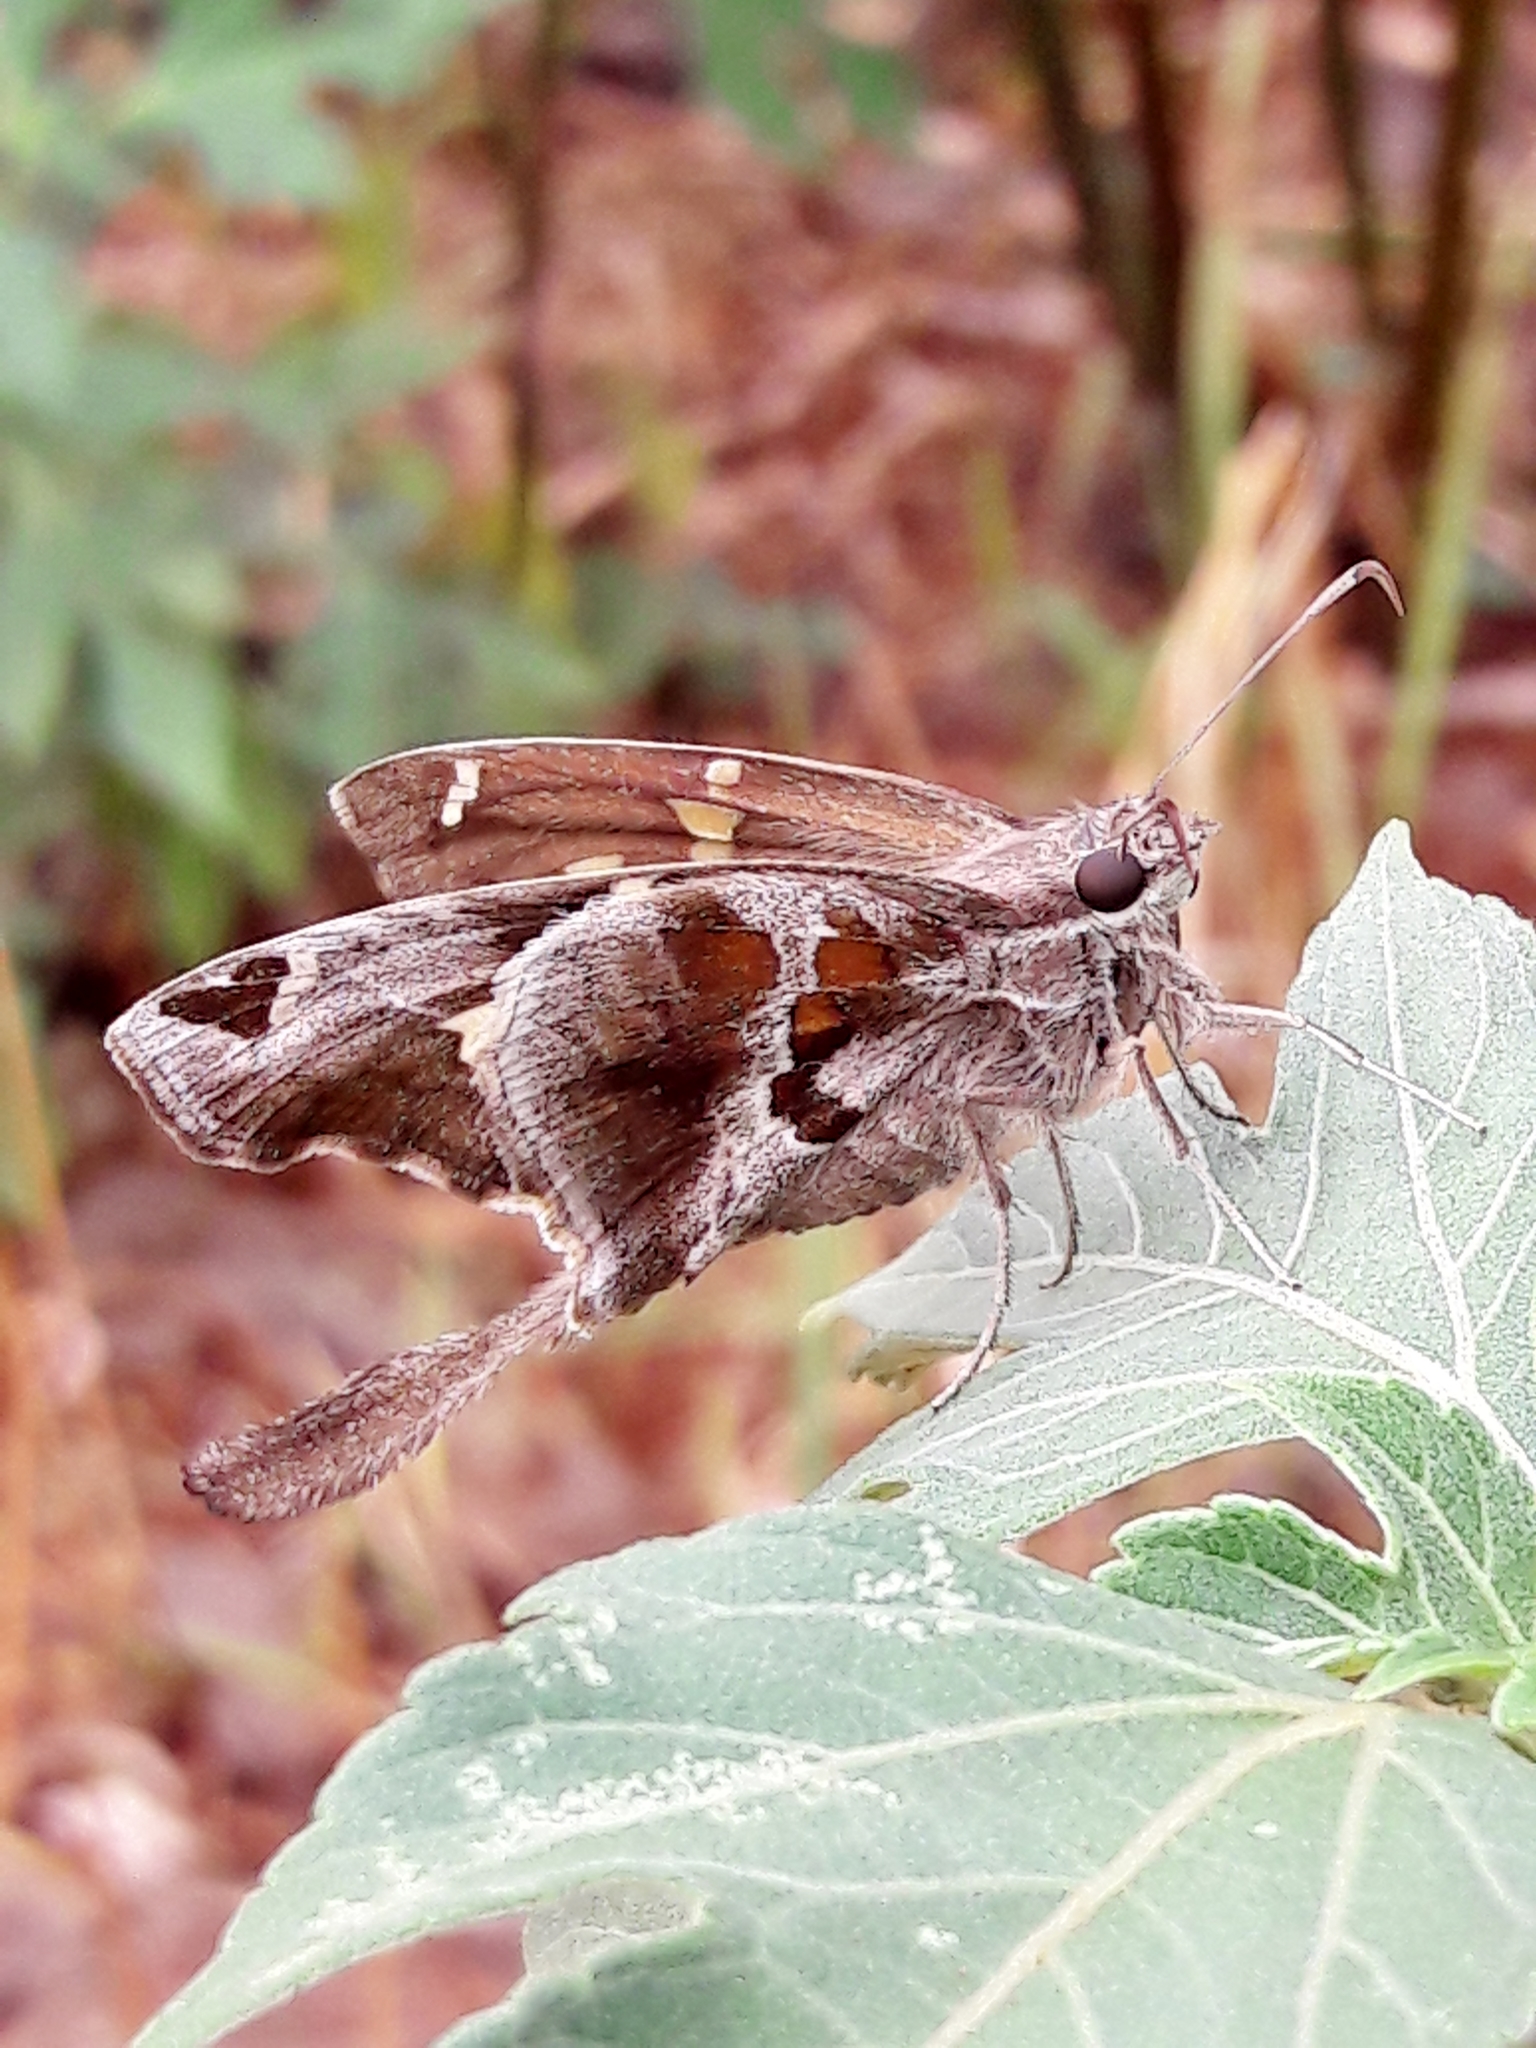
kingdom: Animalia
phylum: Arthropoda
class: Insecta
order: Lepidoptera
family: Hesperiidae
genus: Chioides
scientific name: Chioides catillus
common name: Silverbanded skipper
